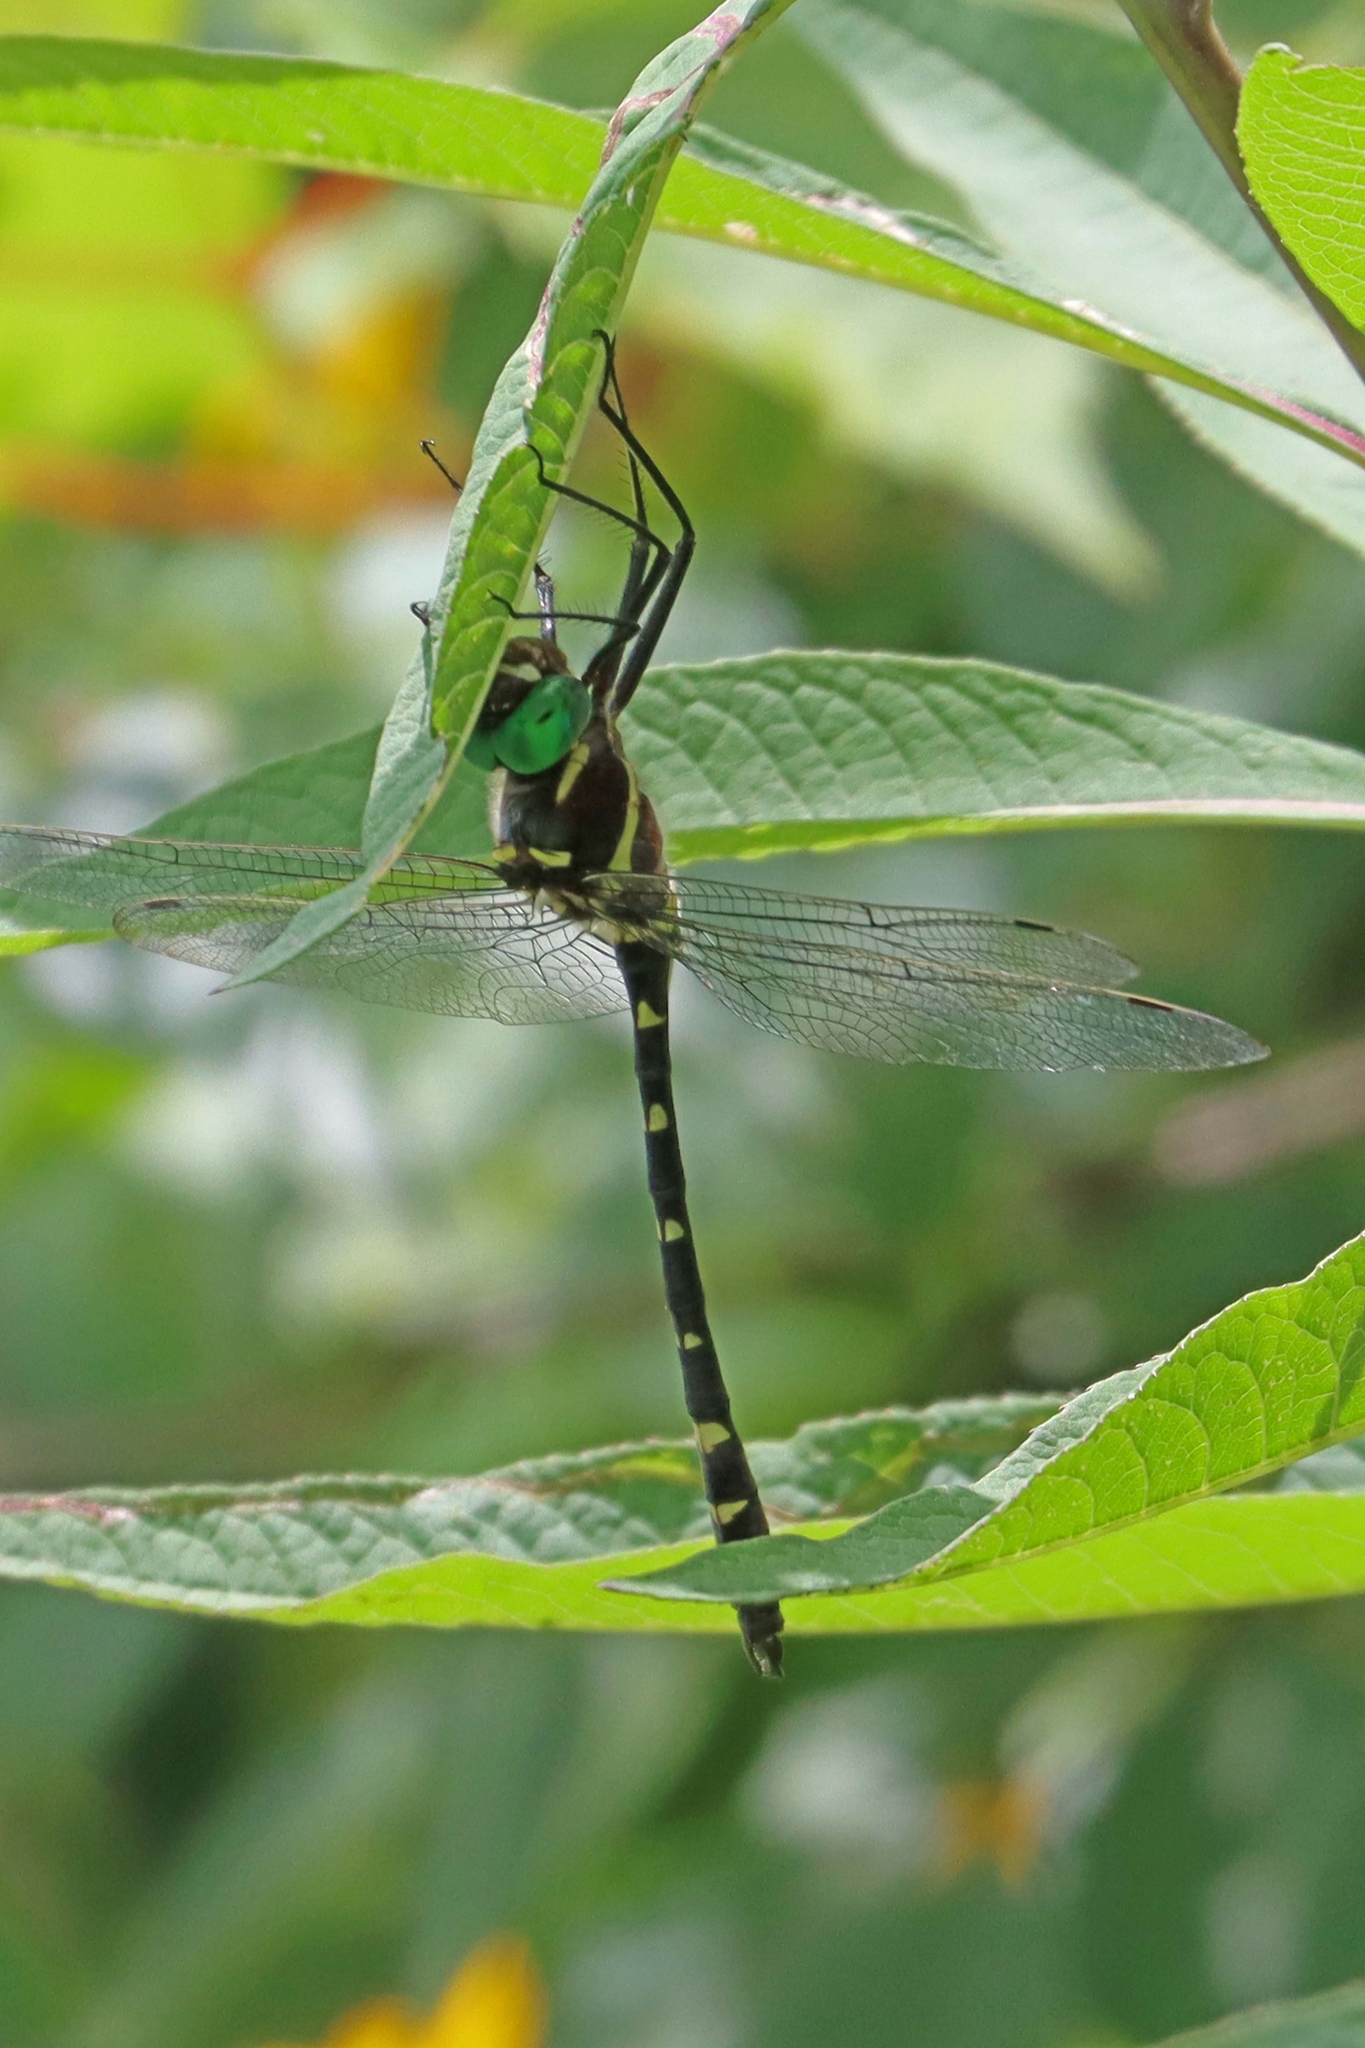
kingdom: Animalia
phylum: Arthropoda
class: Insecta
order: Odonata
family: Macromiidae
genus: Macromia
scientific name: Macromia
